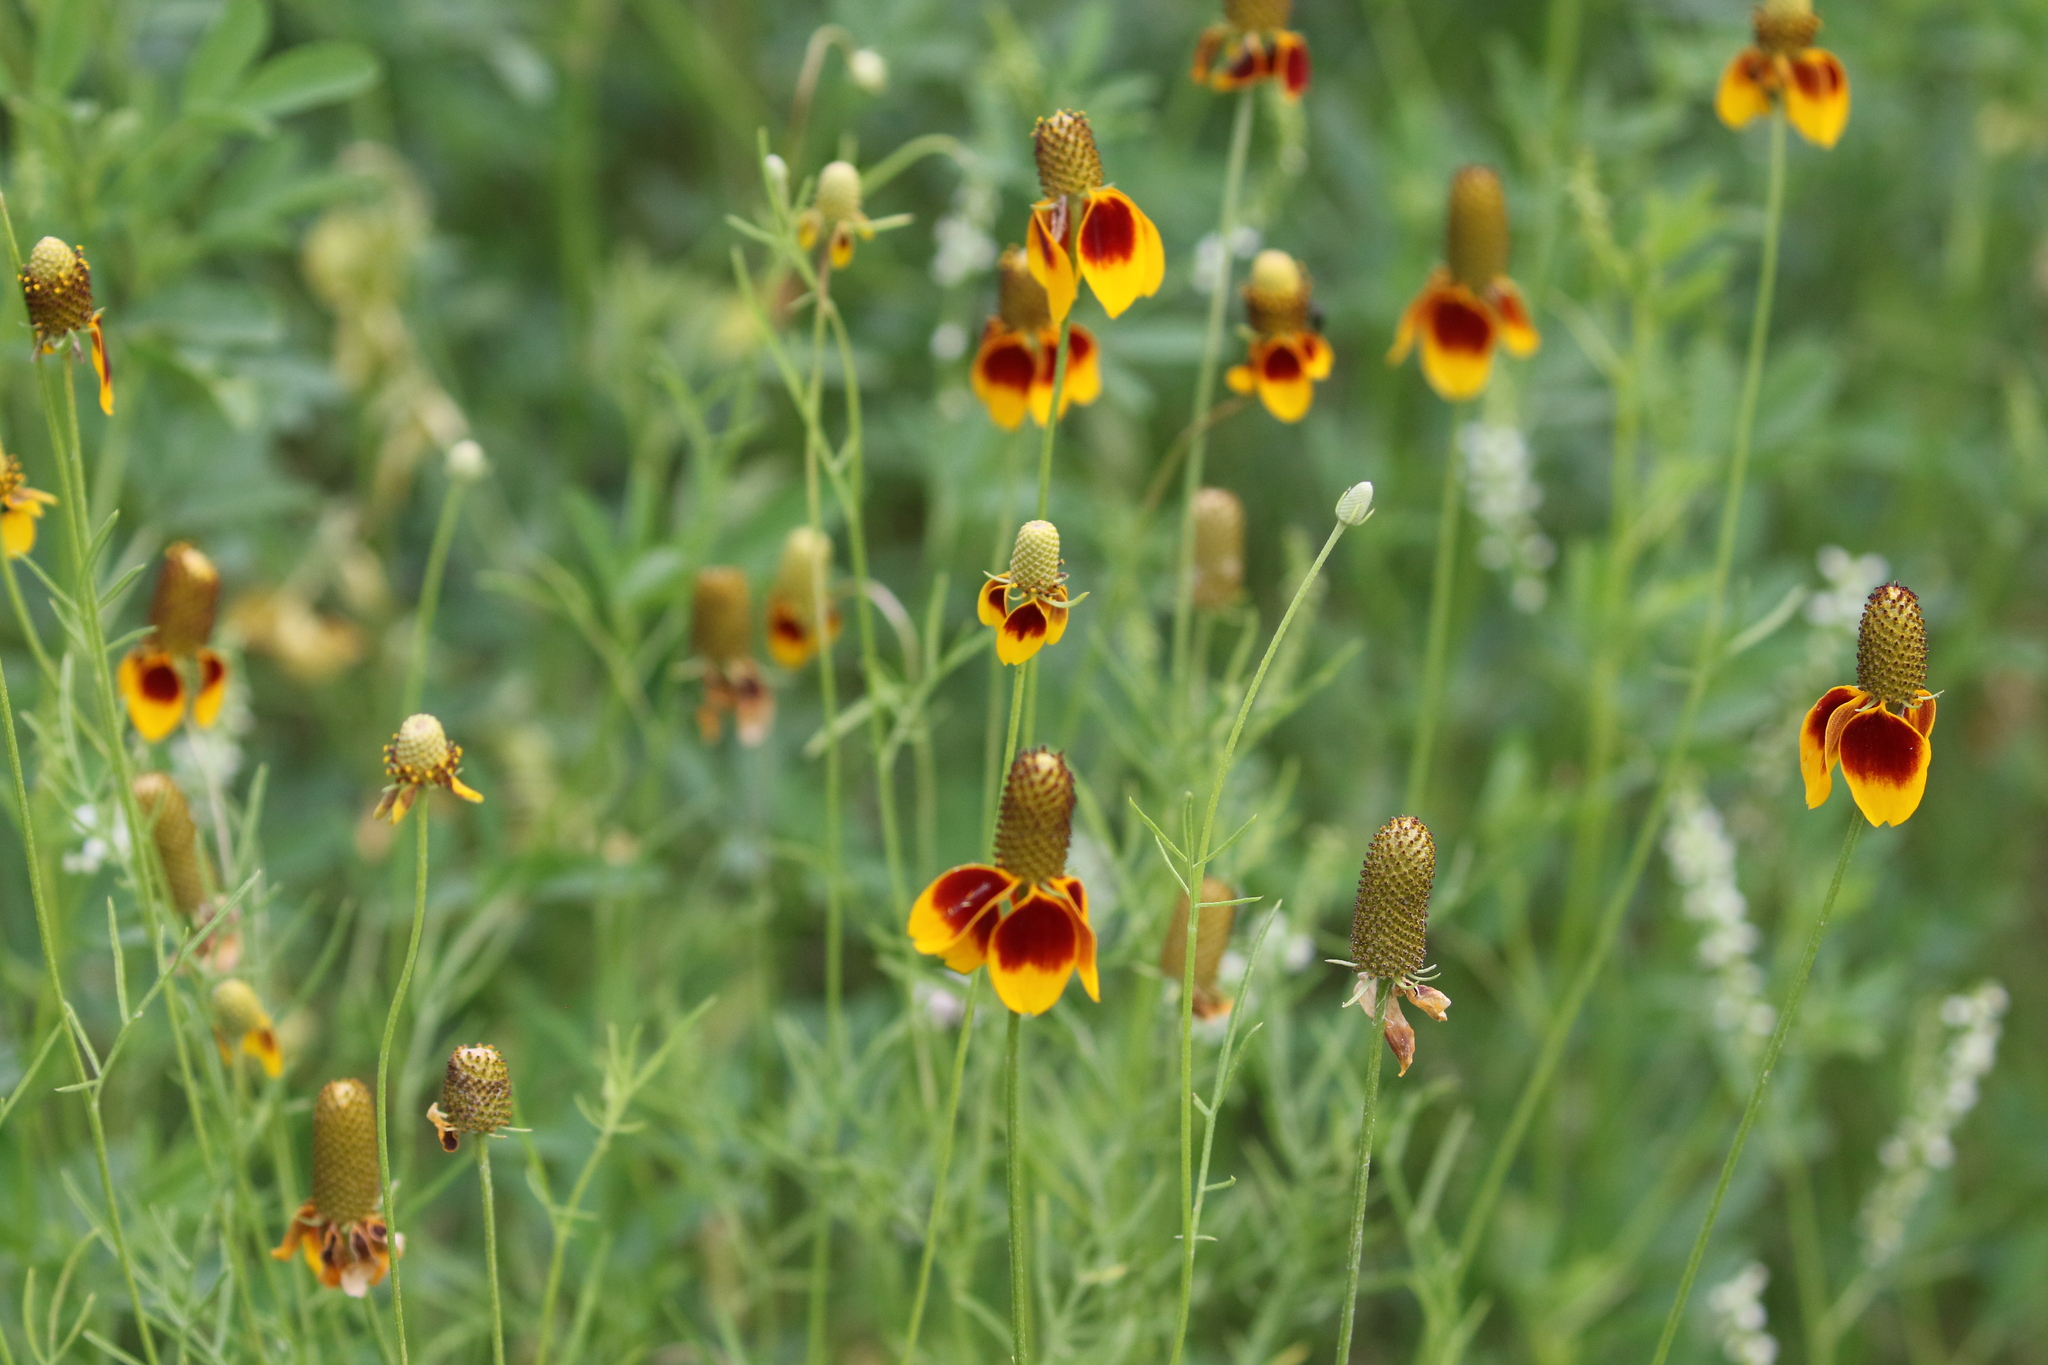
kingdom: Plantae
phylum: Tracheophyta
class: Magnoliopsida
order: Asterales
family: Asteraceae
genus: Ratibida
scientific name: Ratibida columnifera
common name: Prairie coneflower
